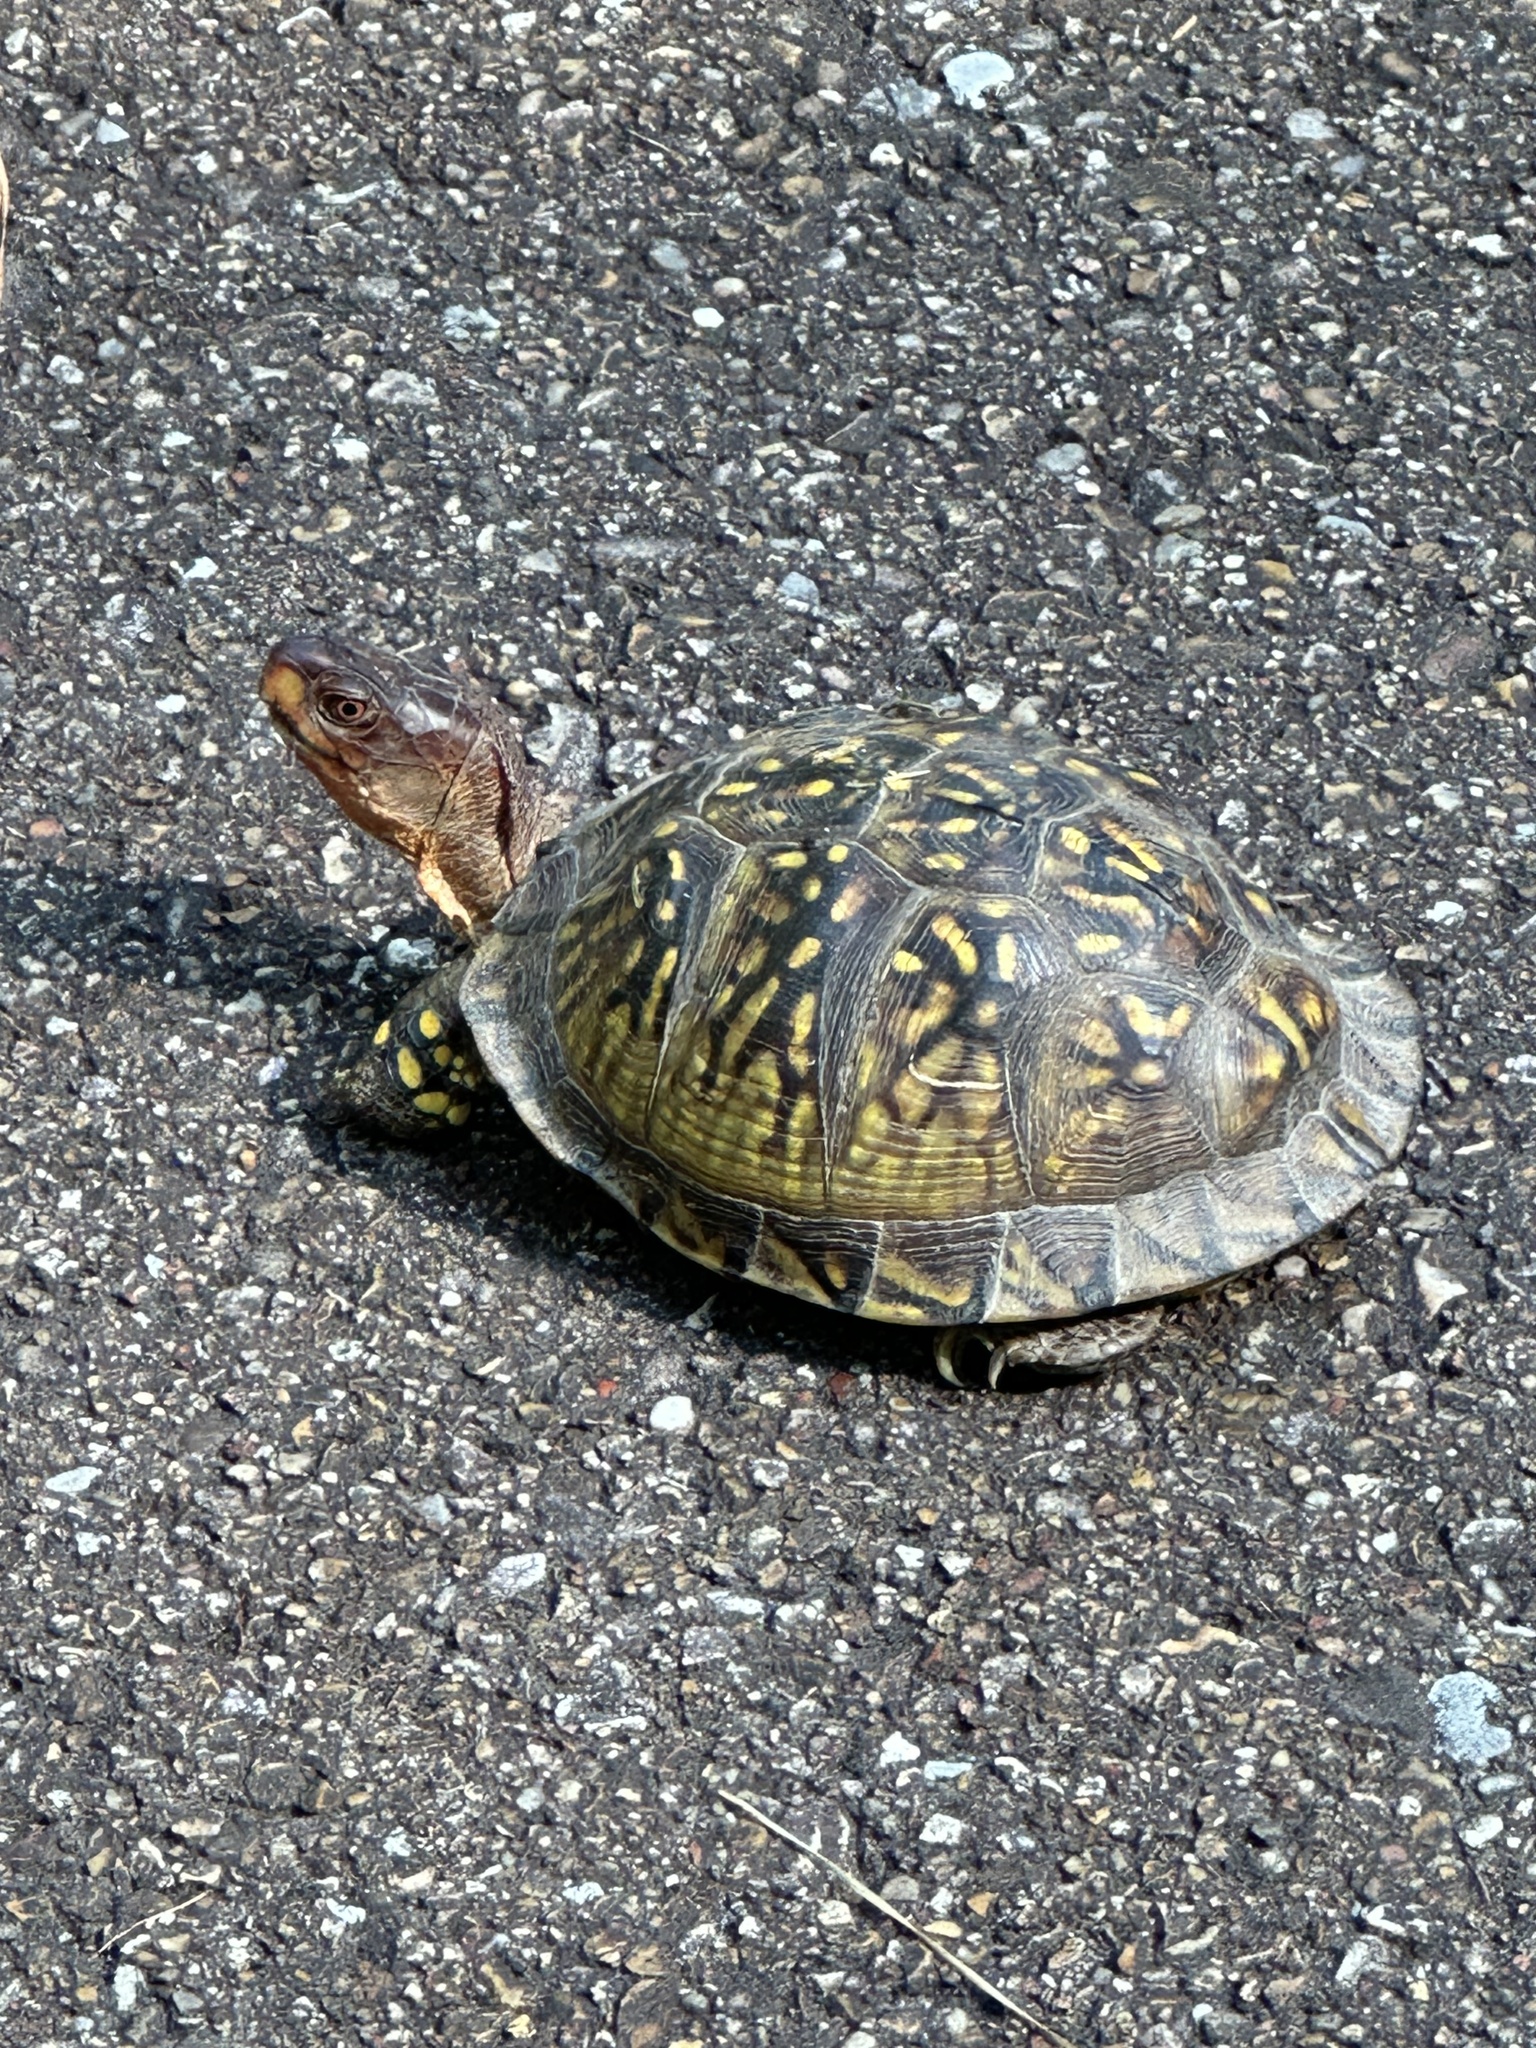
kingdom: Animalia
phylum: Chordata
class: Testudines
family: Emydidae
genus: Terrapene
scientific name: Terrapene carolina
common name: Common box turtle
